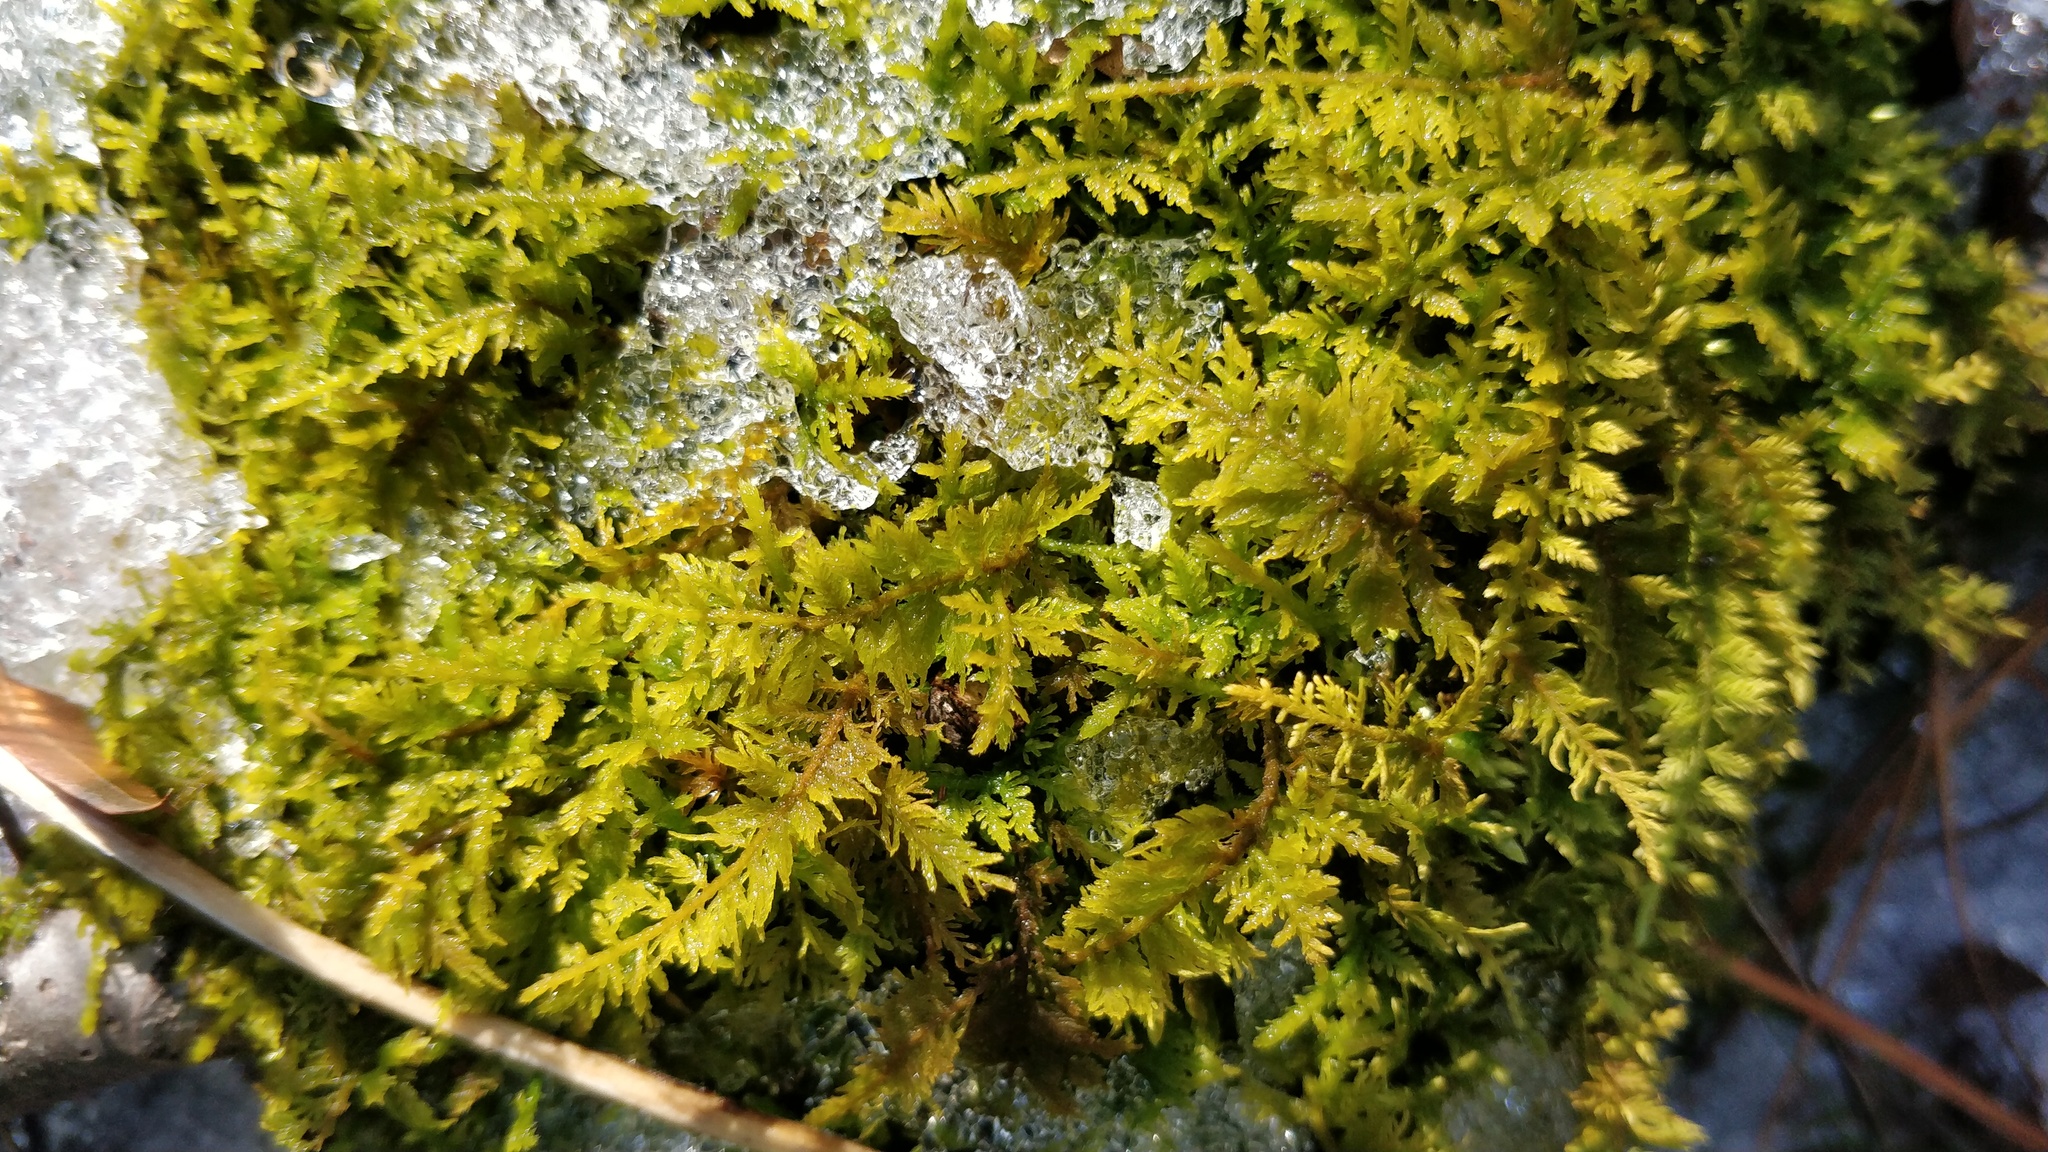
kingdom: Plantae
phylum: Bryophyta
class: Bryopsida
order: Hypnales
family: Thuidiaceae
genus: Thuidium
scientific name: Thuidium delicatulum
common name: Delicate fern moss
